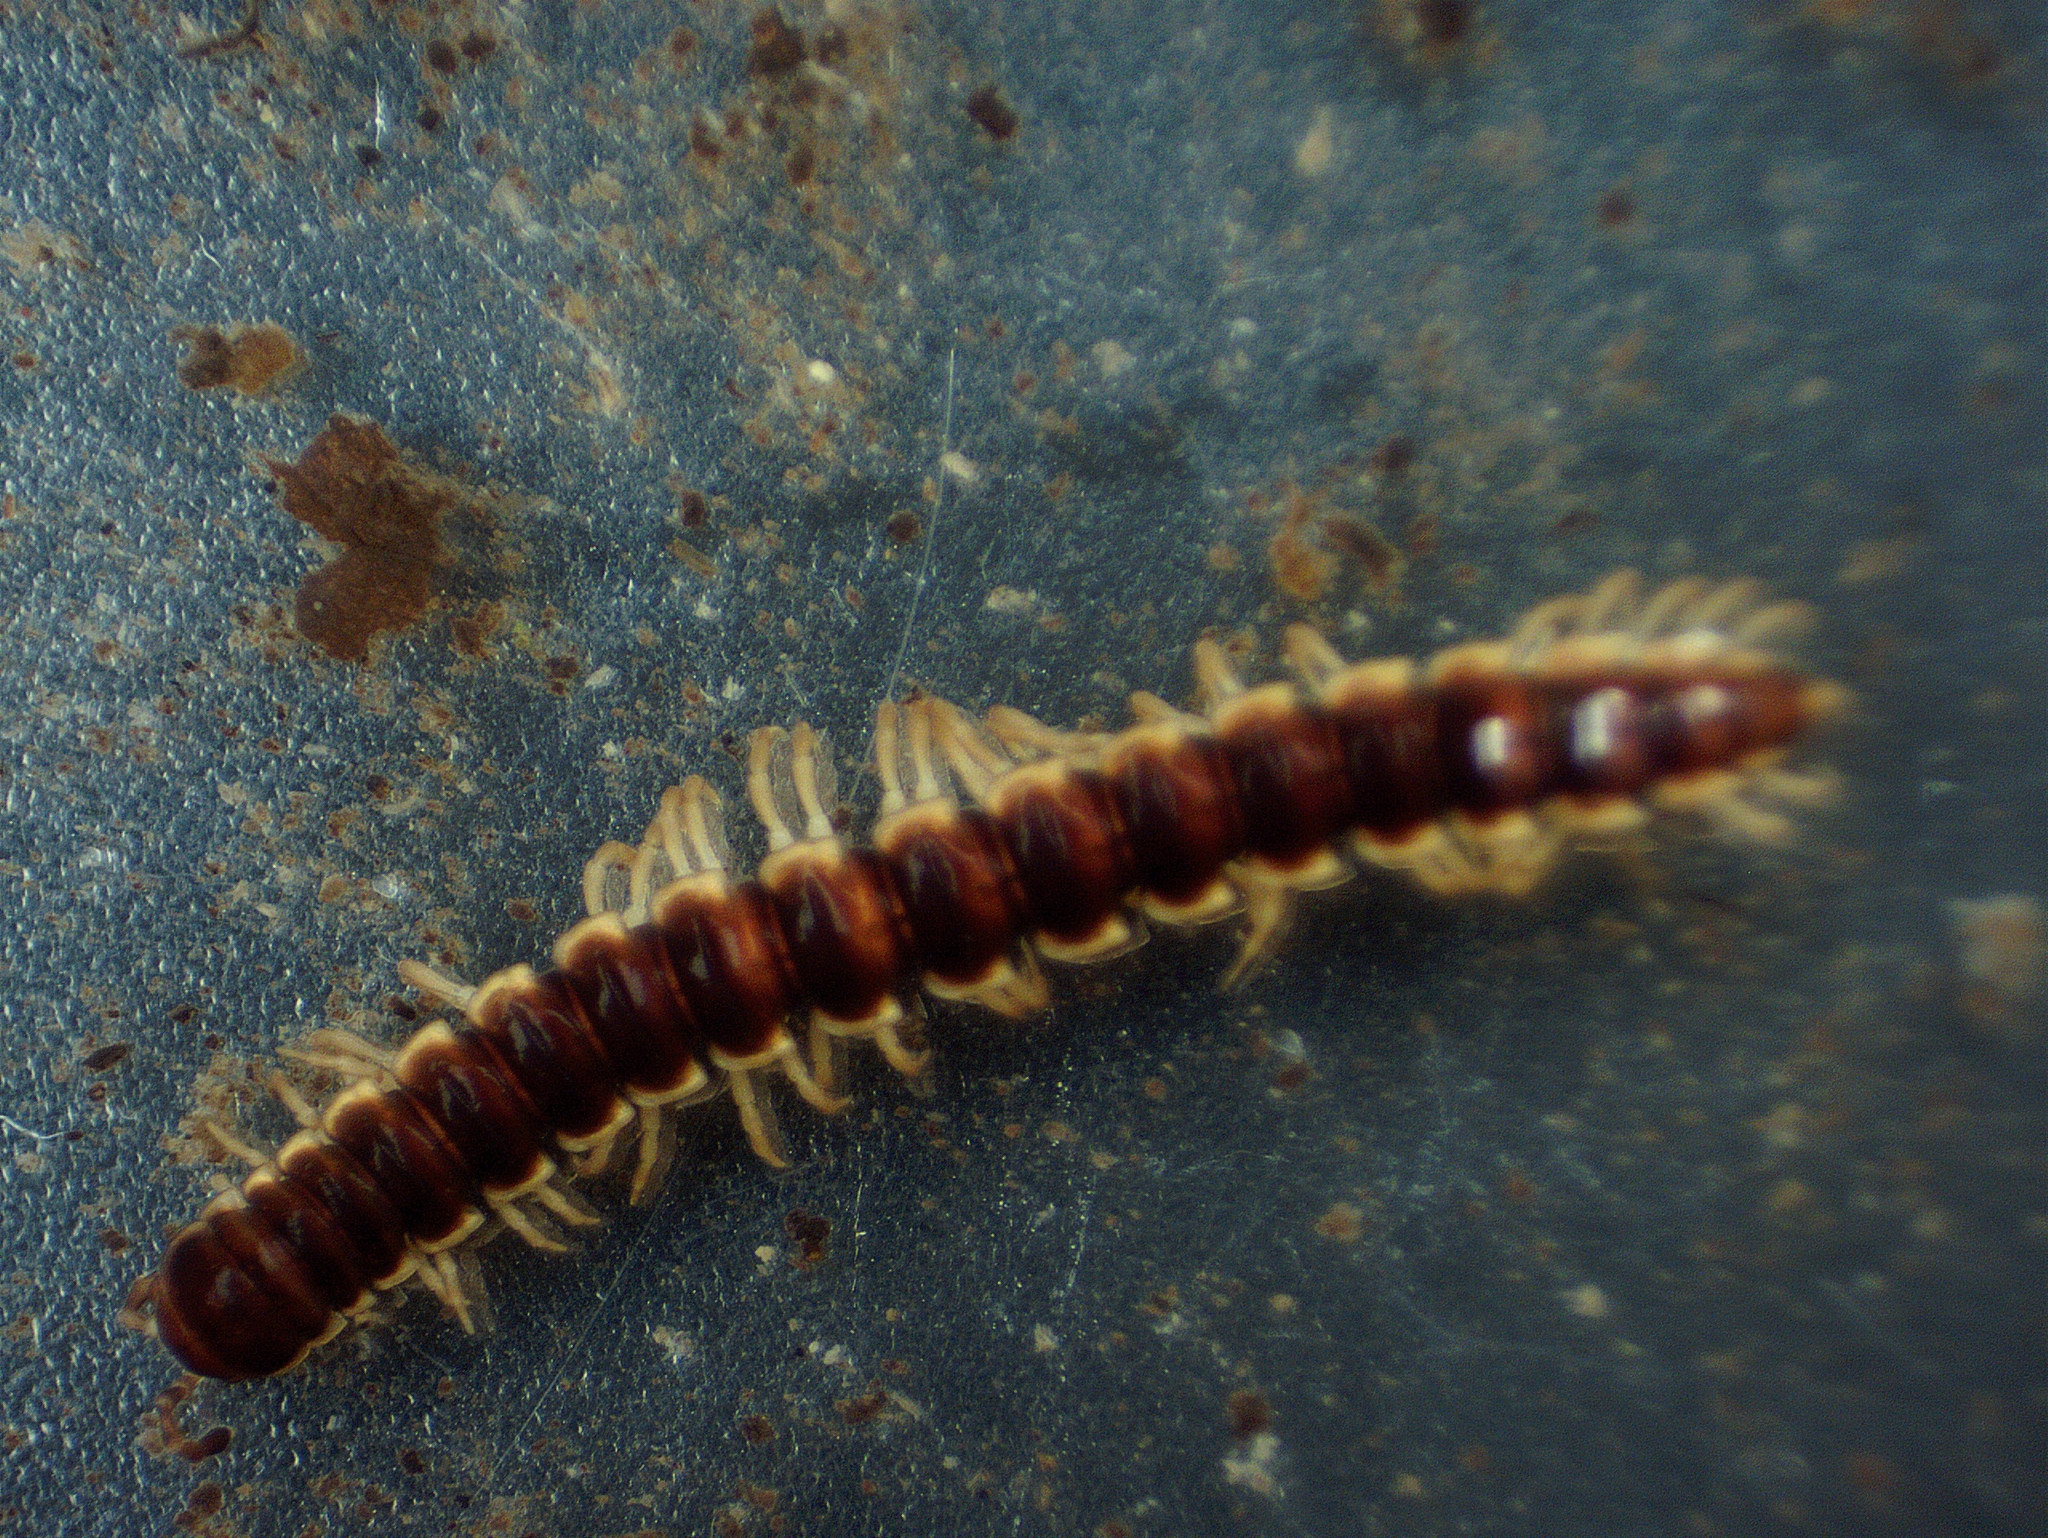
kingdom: Animalia
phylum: Arthropoda
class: Diplopoda
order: Polydesmida
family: Paradoxosomatidae
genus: Oxidus
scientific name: Oxidus gracilis
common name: Greenhouse millipede
